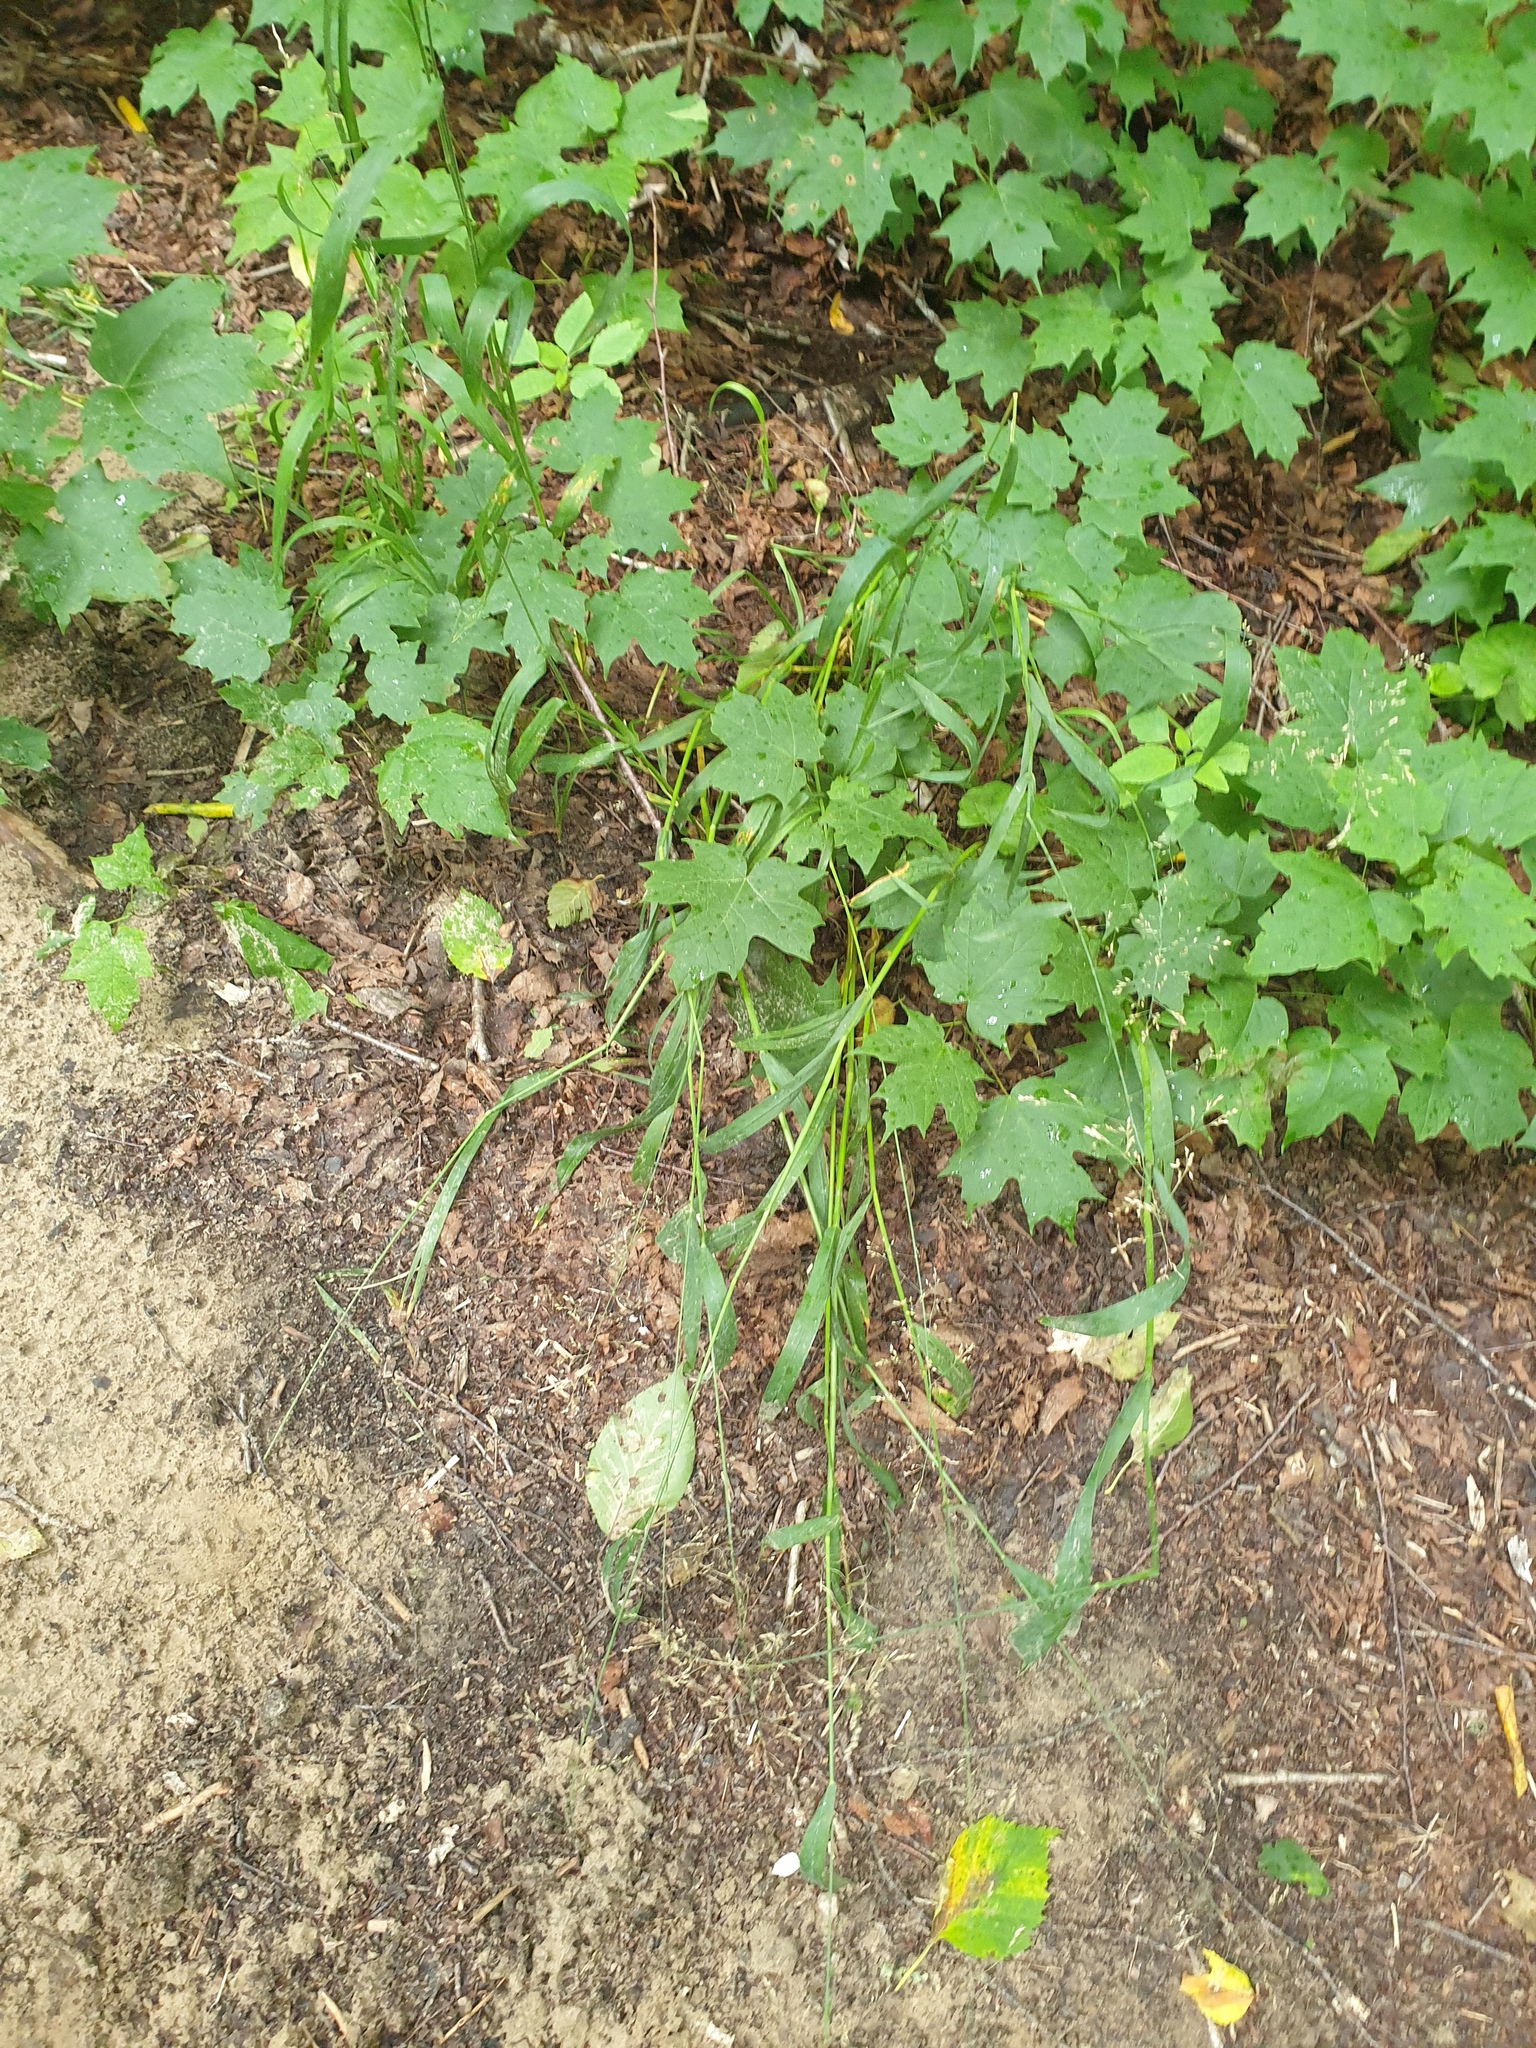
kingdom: Plantae
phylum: Tracheophyta
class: Liliopsida
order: Poales
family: Poaceae
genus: Milium
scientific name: Milium effusum
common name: Wood millet
